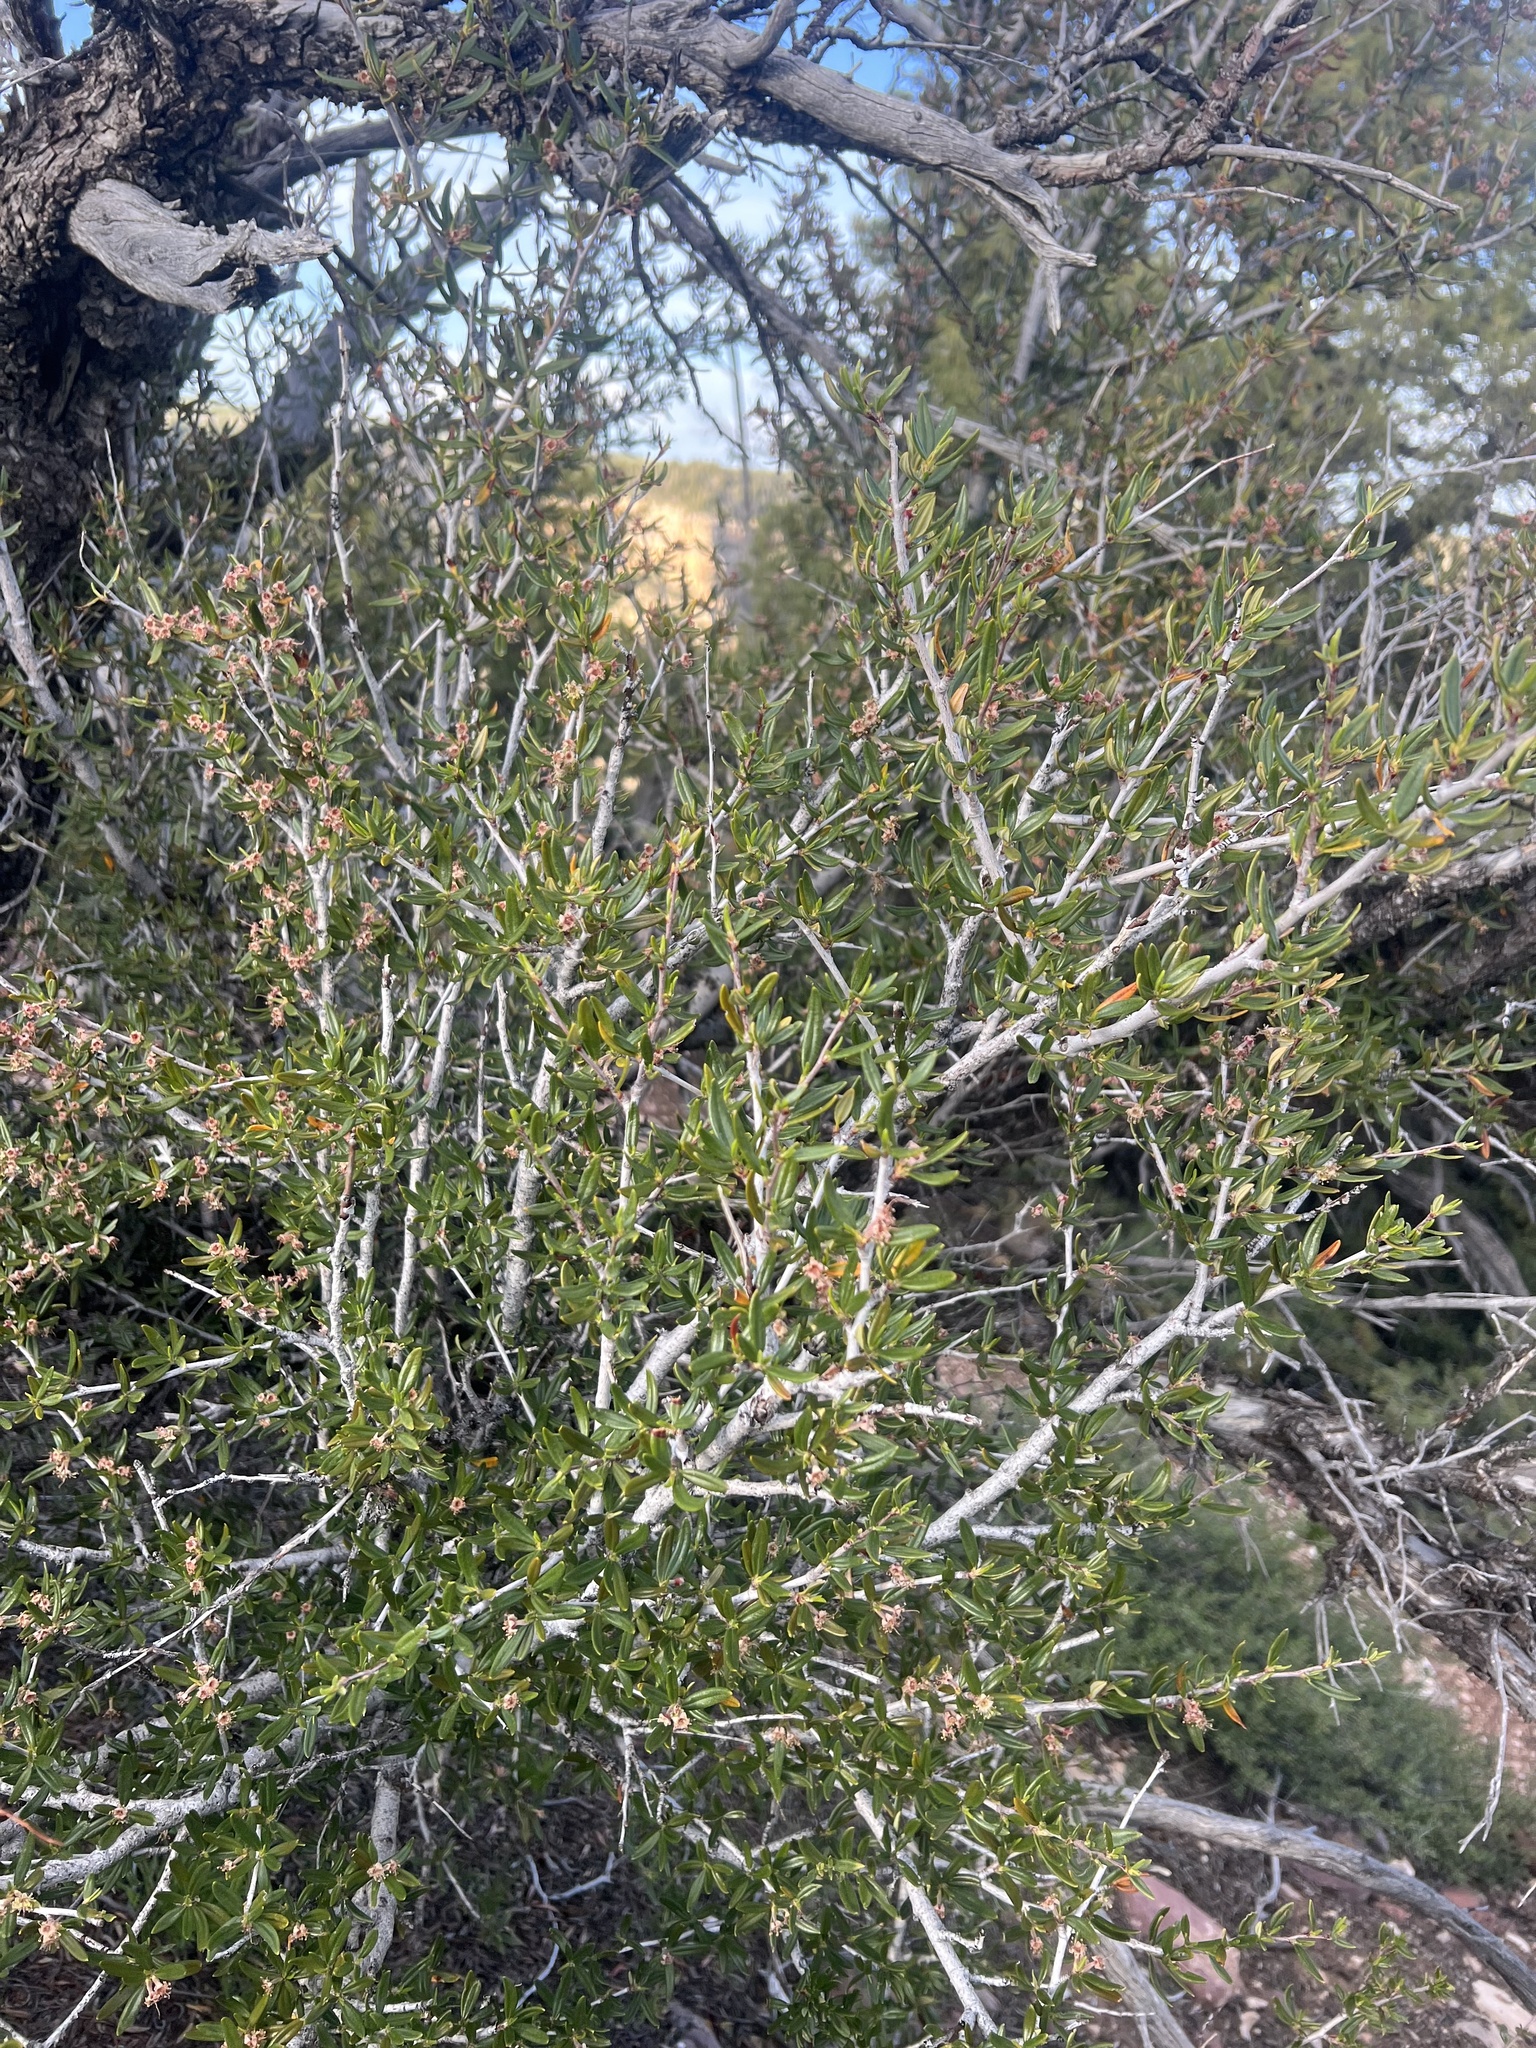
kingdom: Plantae
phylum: Tracheophyta
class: Magnoliopsida
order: Rosales
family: Rosaceae
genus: Cercocarpus
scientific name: Cercocarpus ledifolius
